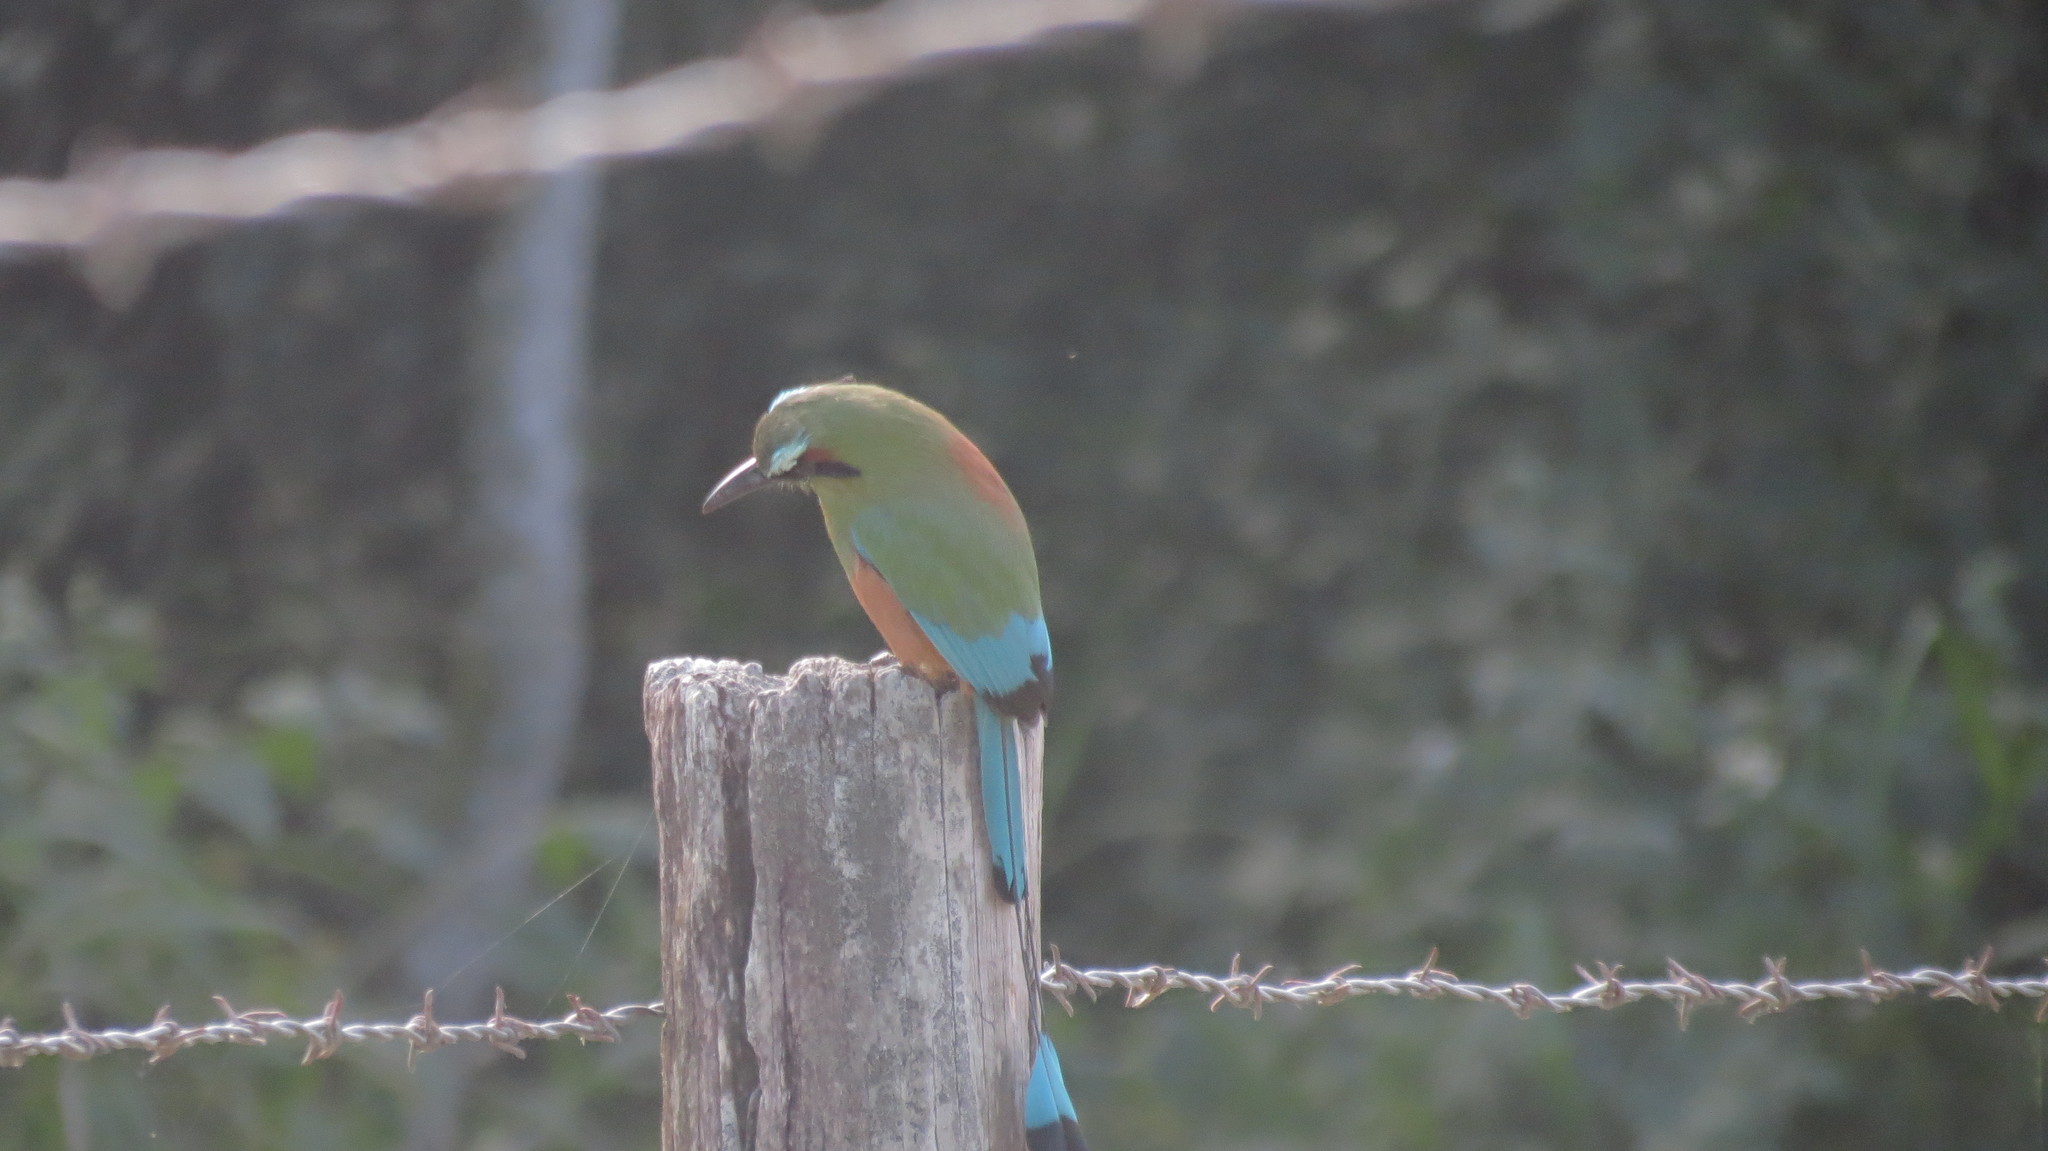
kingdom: Animalia
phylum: Chordata
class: Aves
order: Coraciiformes
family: Momotidae
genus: Eumomota
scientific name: Eumomota superciliosa
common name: Turquoise-browed motmot
